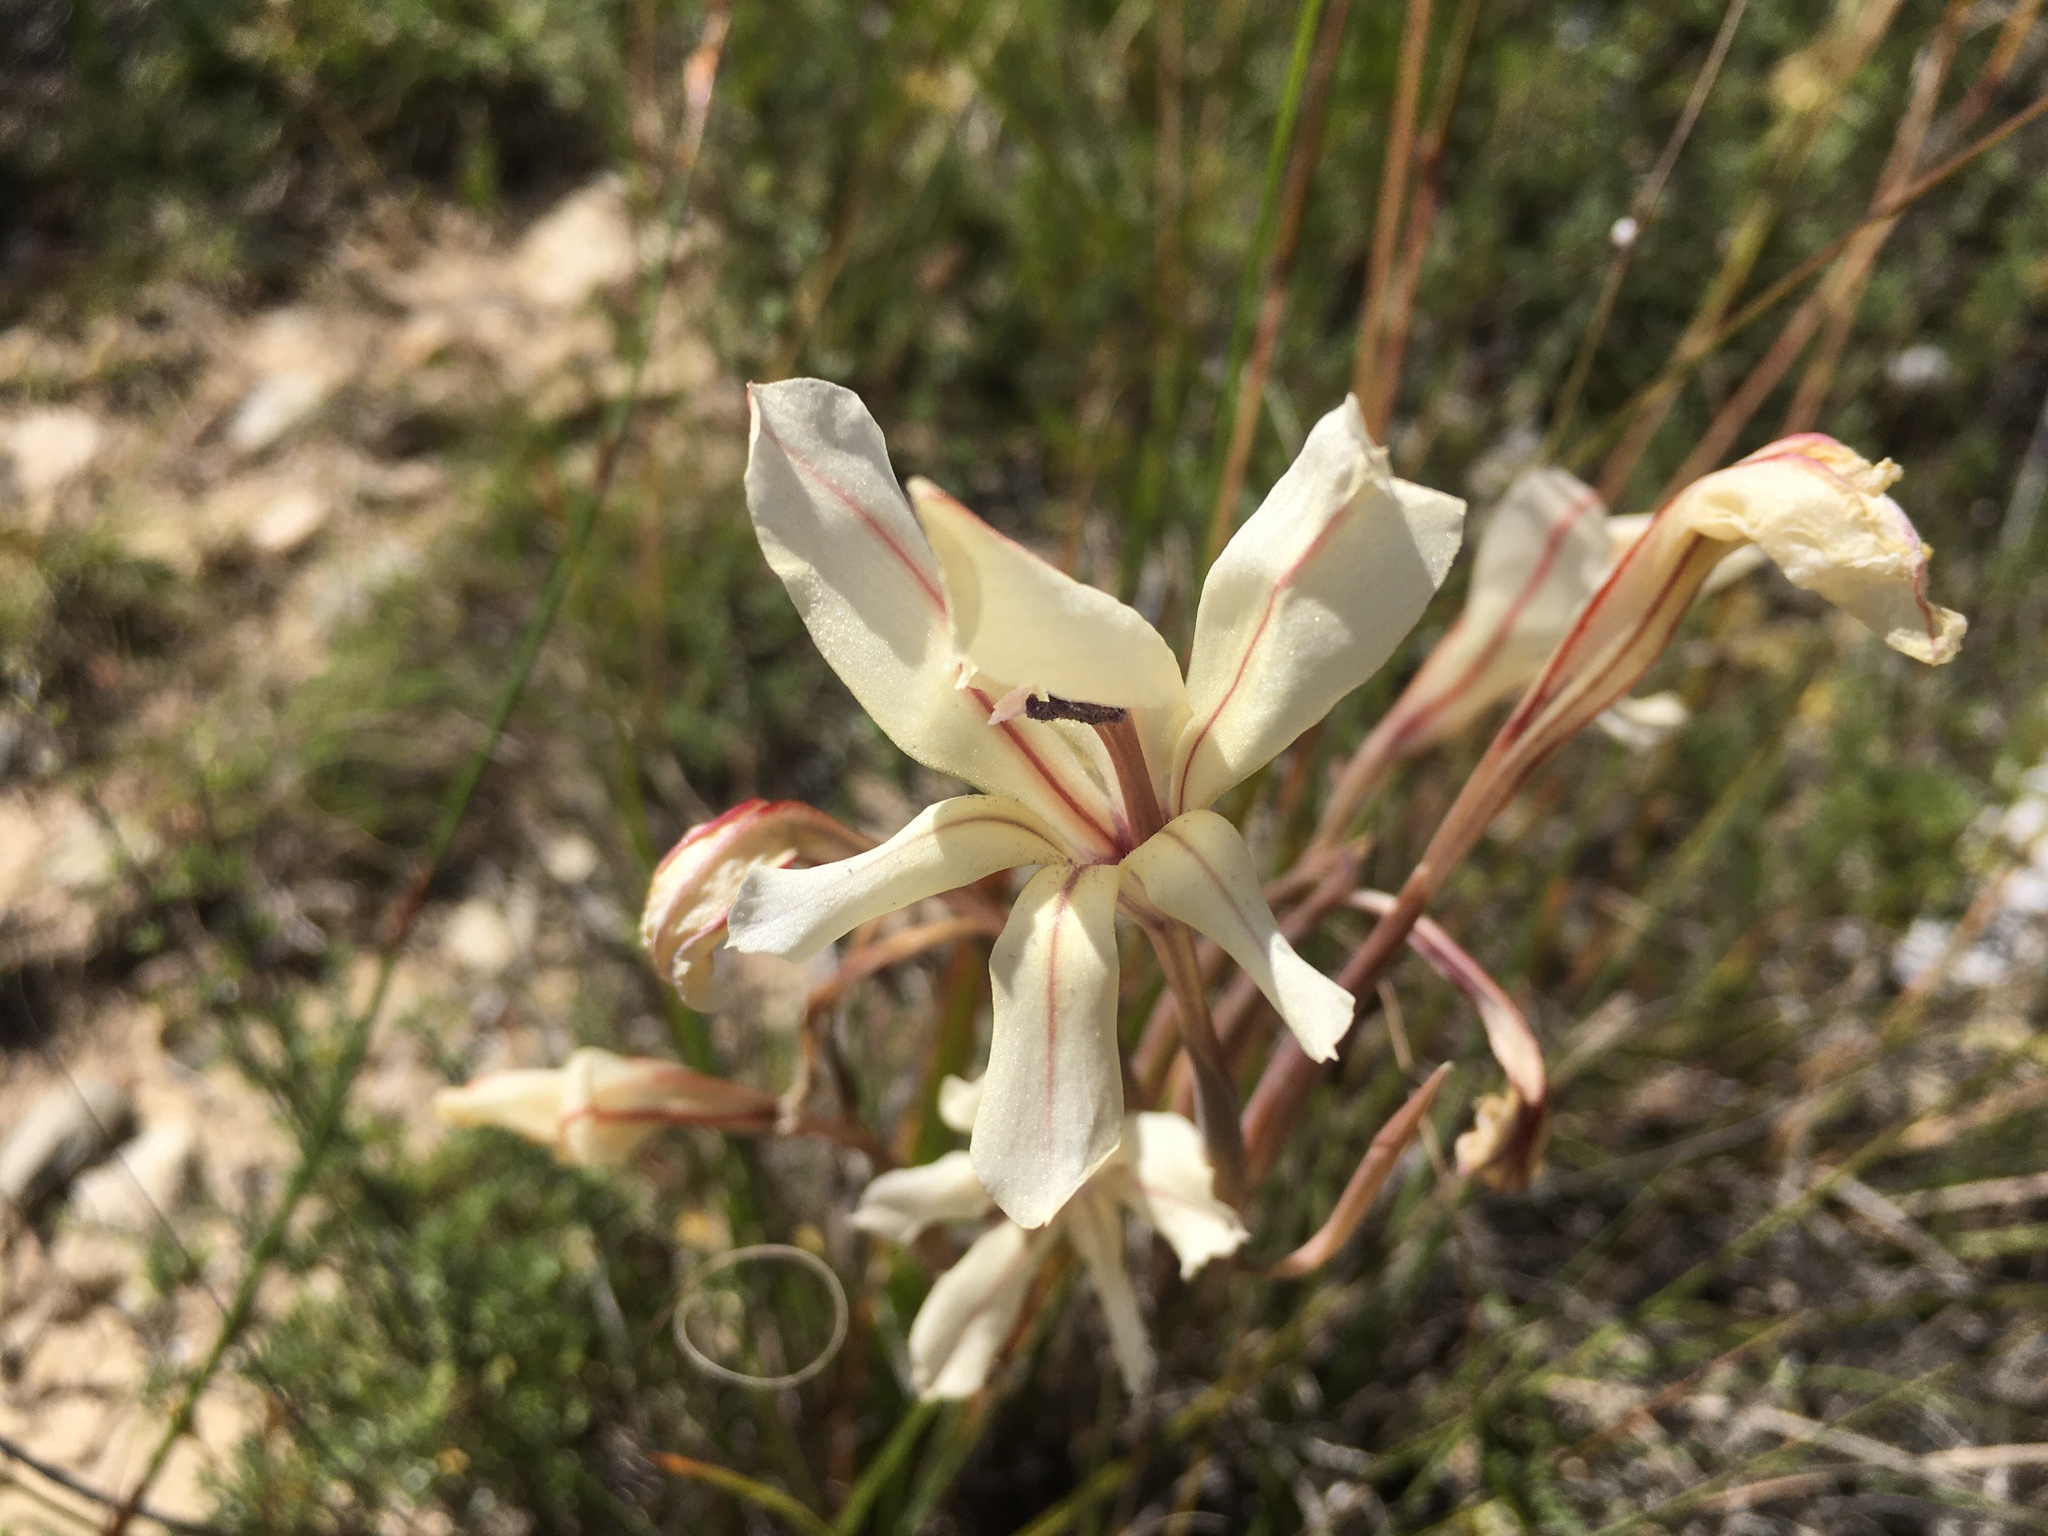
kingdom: Plantae
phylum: Tracheophyta
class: Liliopsida
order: Asparagales
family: Iridaceae
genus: Gladiolus
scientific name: Gladiolus floribundus
